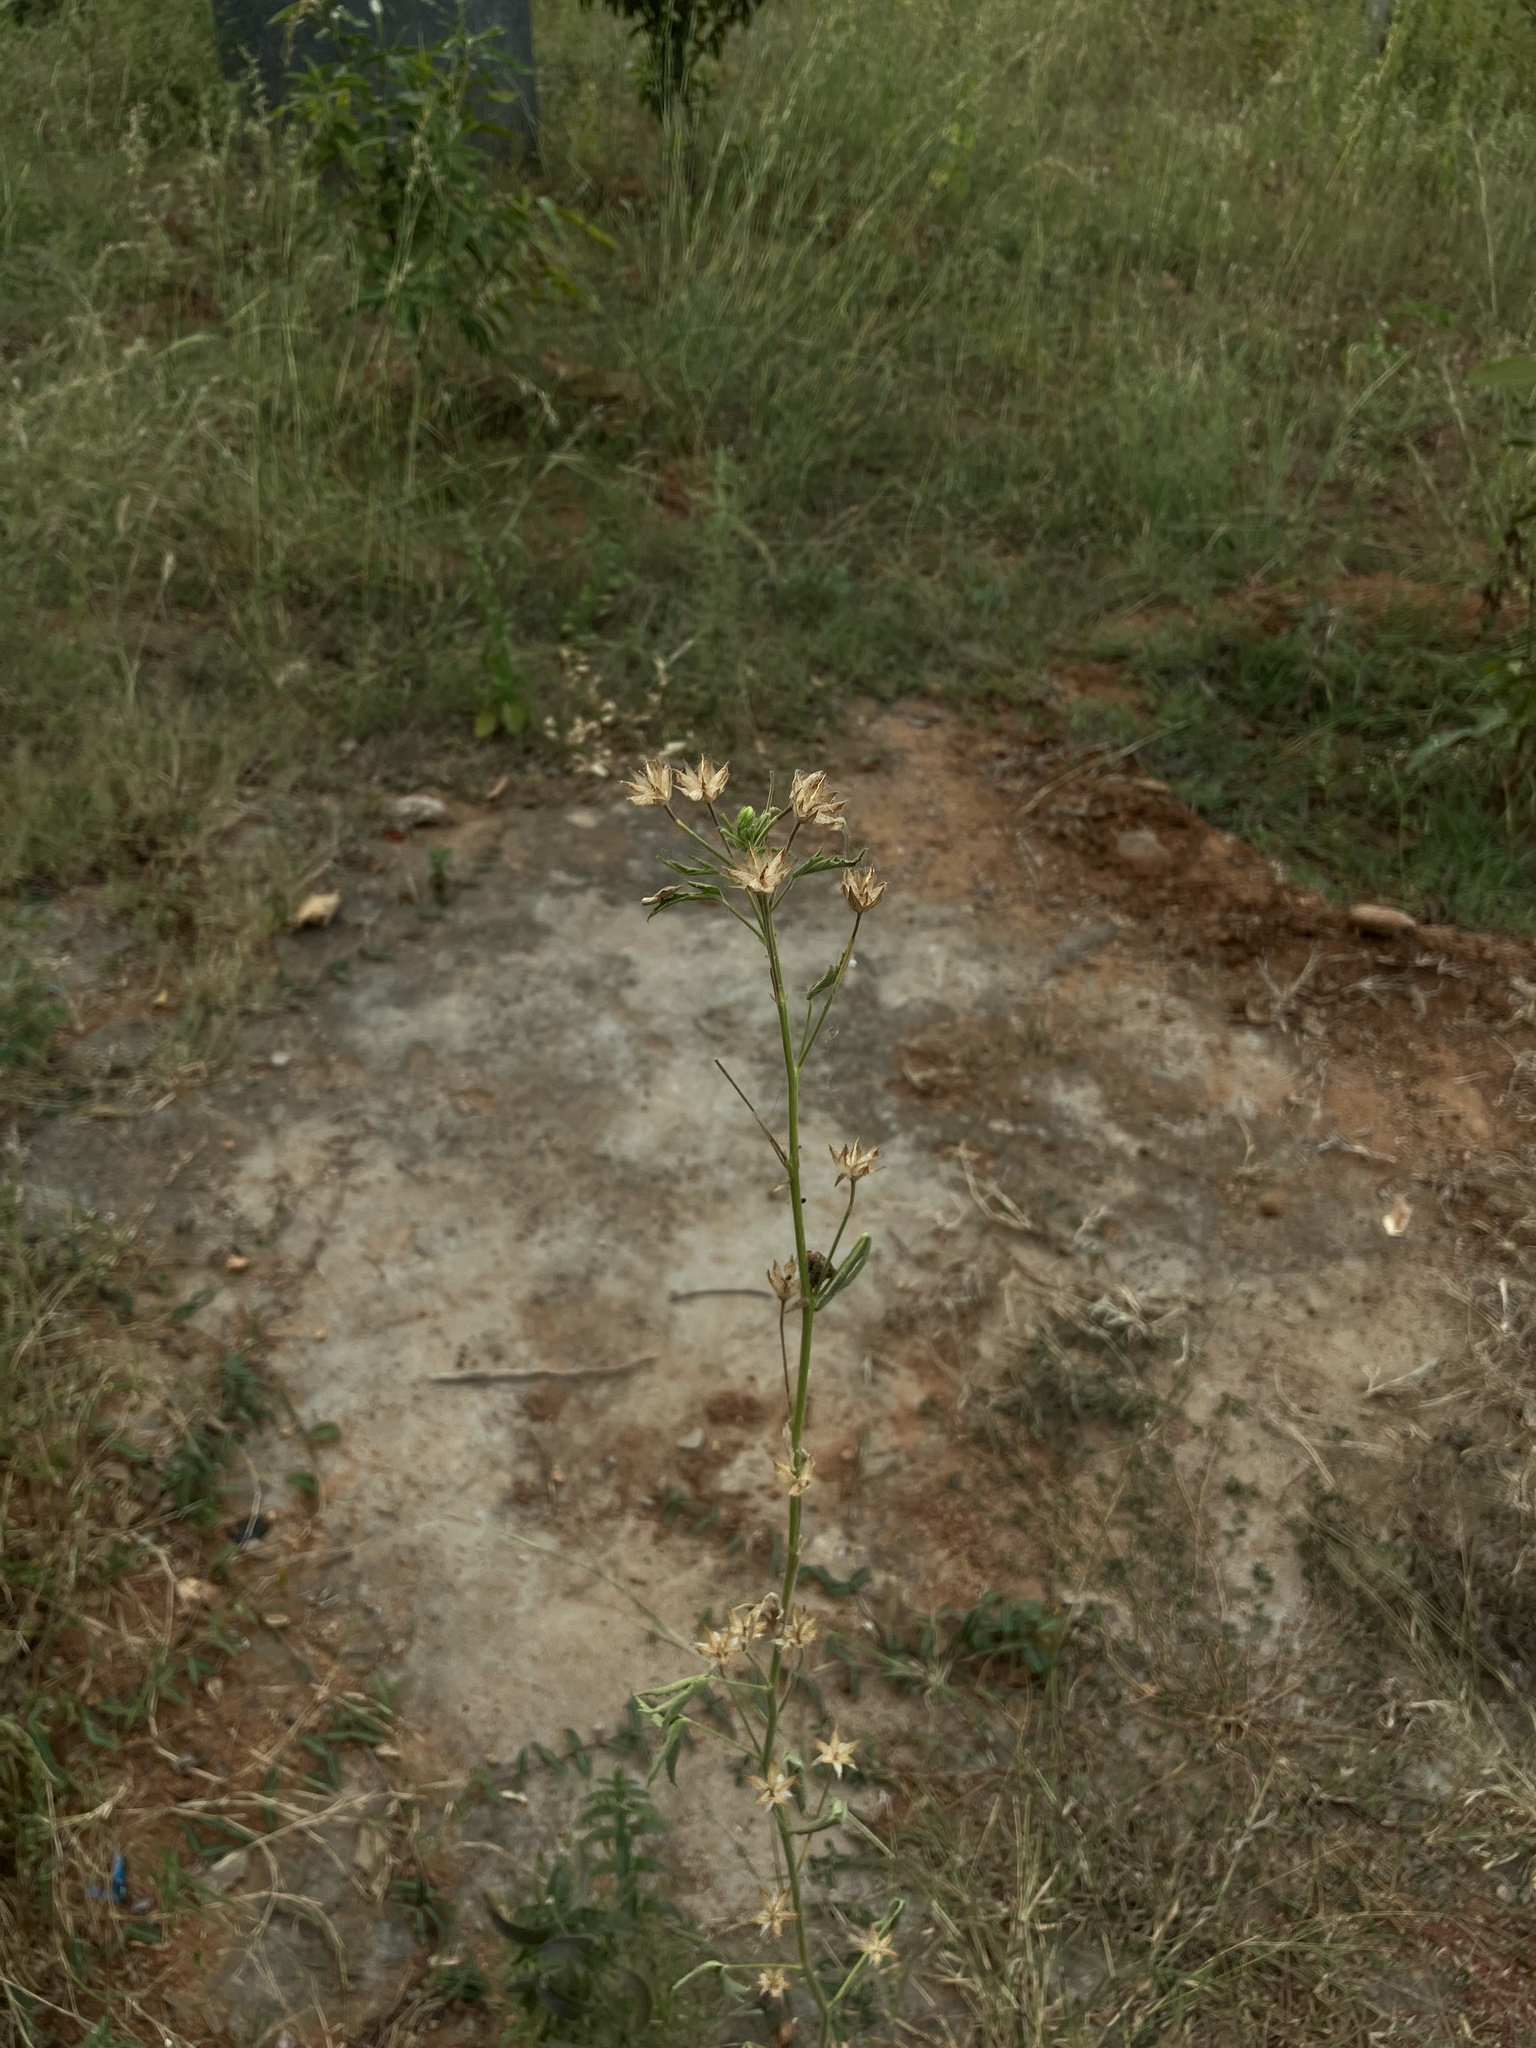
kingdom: Plantae
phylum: Tracheophyta
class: Magnoliopsida
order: Malvales
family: Malvaceae
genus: Hibiscus
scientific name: Hibiscus lobatus
